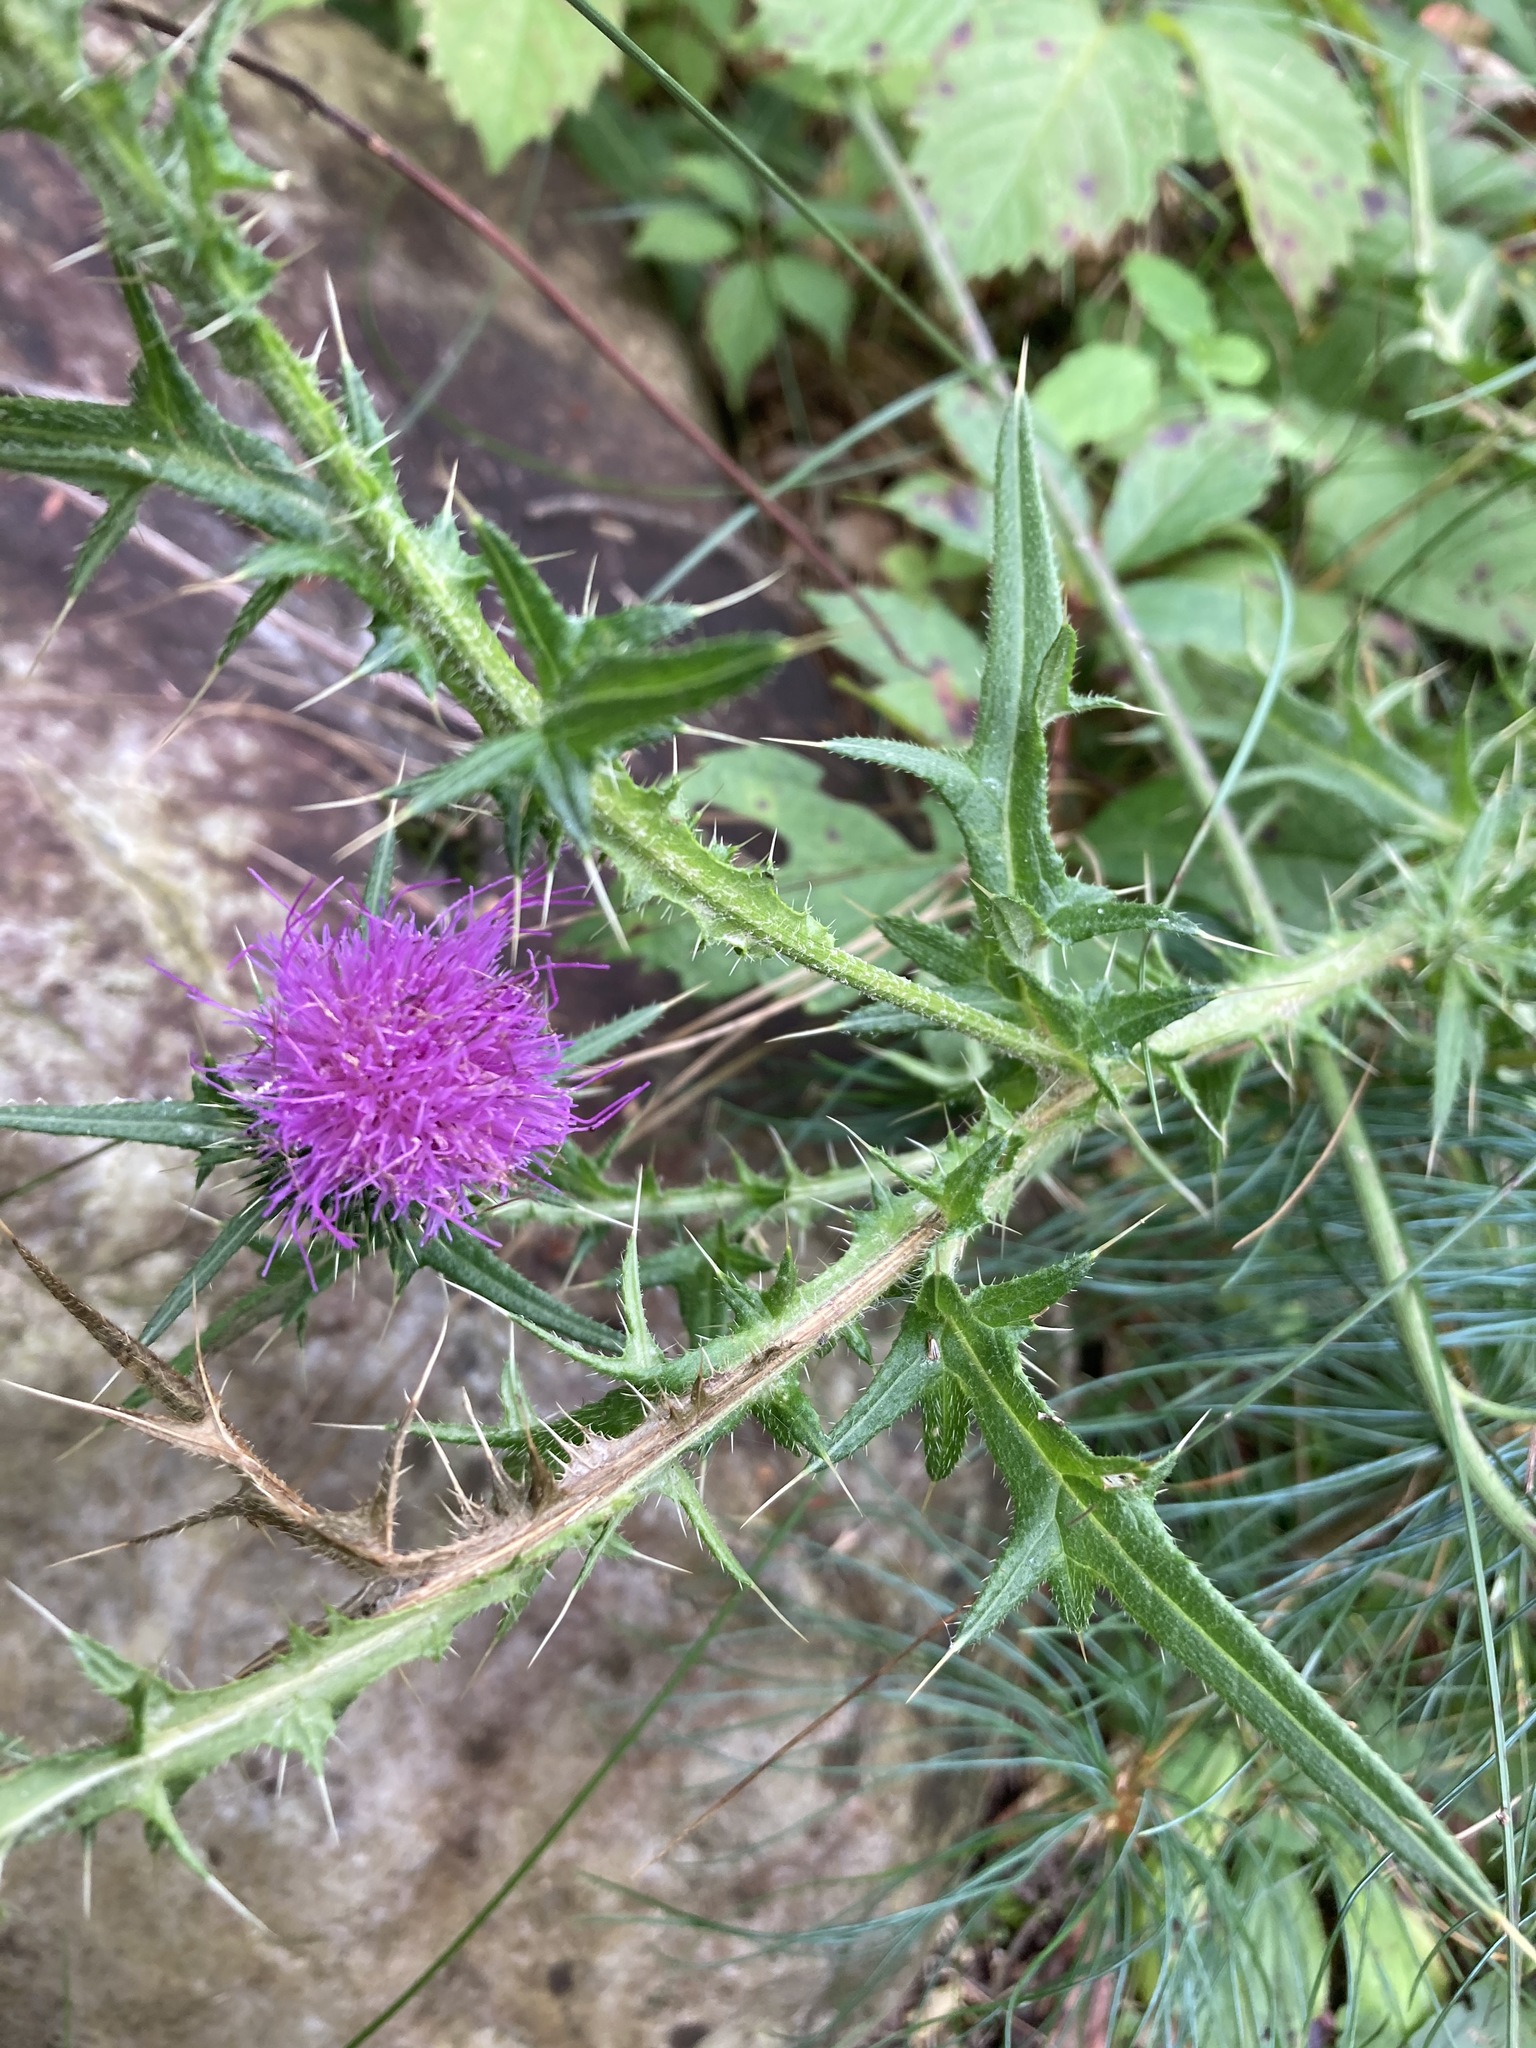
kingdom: Plantae
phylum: Tracheophyta
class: Magnoliopsida
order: Asterales
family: Asteraceae
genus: Cirsium
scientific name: Cirsium vulgare
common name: Bull thistle
